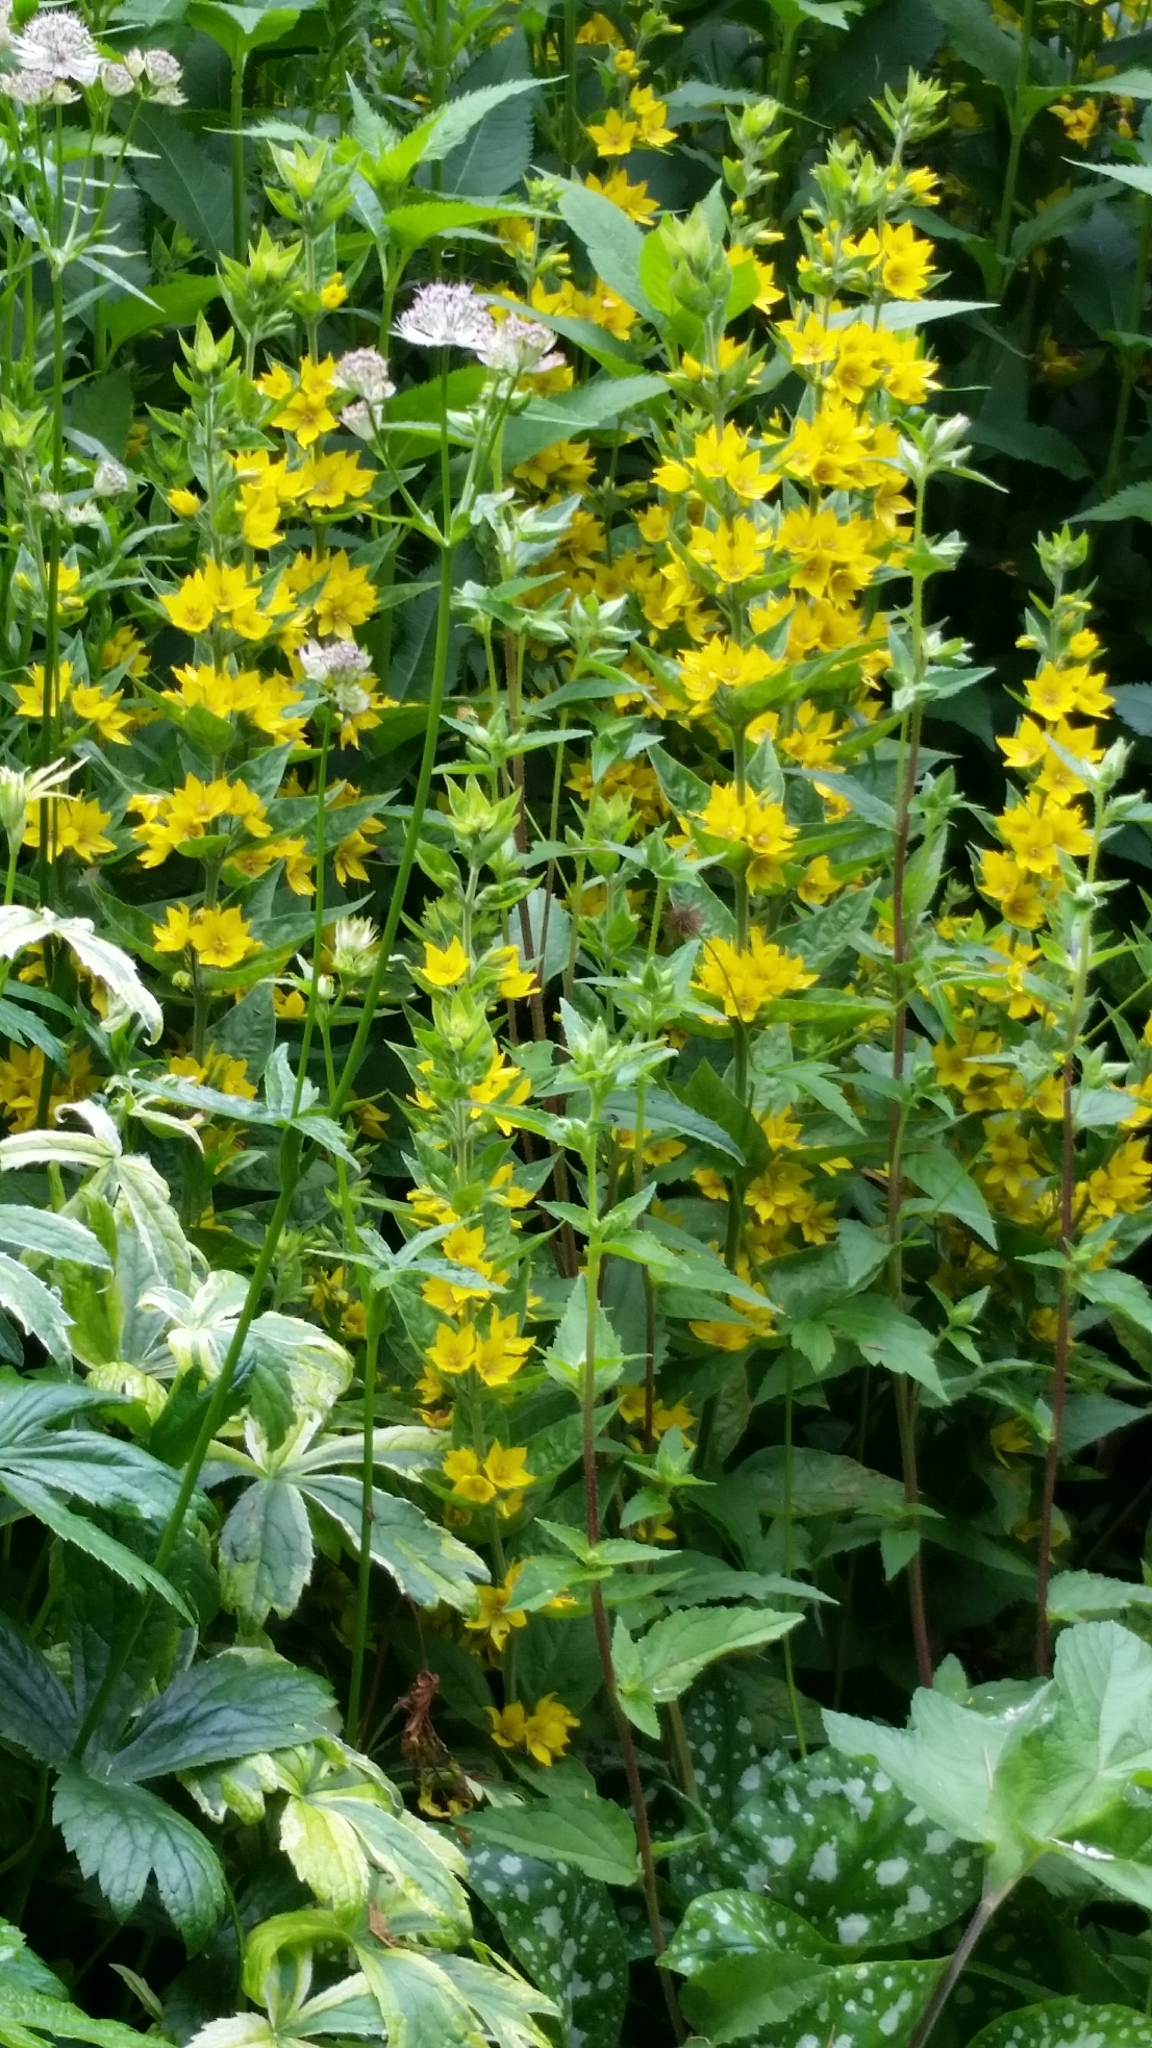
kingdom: Plantae
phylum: Tracheophyta
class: Magnoliopsida
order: Ericales
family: Primulaceae
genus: Lysimachia
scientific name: Lysimachia punctata
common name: Dotted loosestrife
